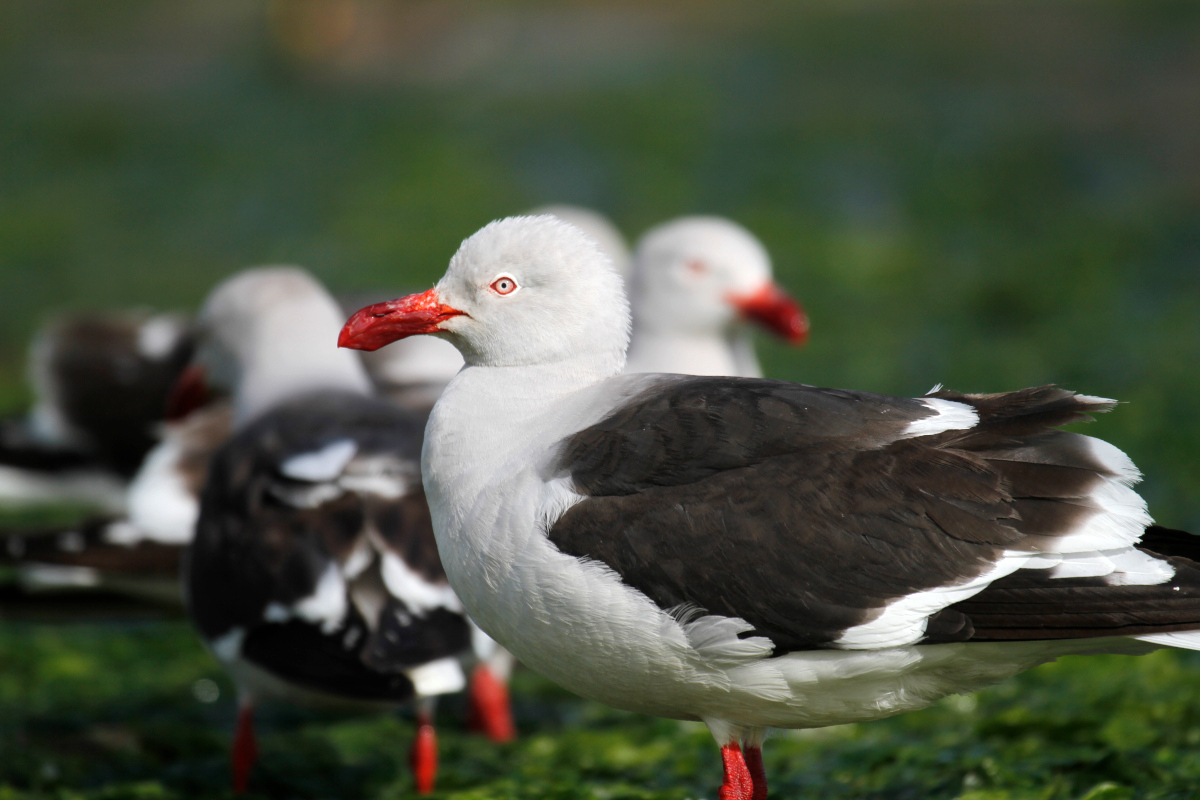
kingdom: Animalia
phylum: Chordata
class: Aves
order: Charadriiformes
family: Laridae
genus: Leucophaeus
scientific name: Leucophaeus scoresbii
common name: Dolphin gull
